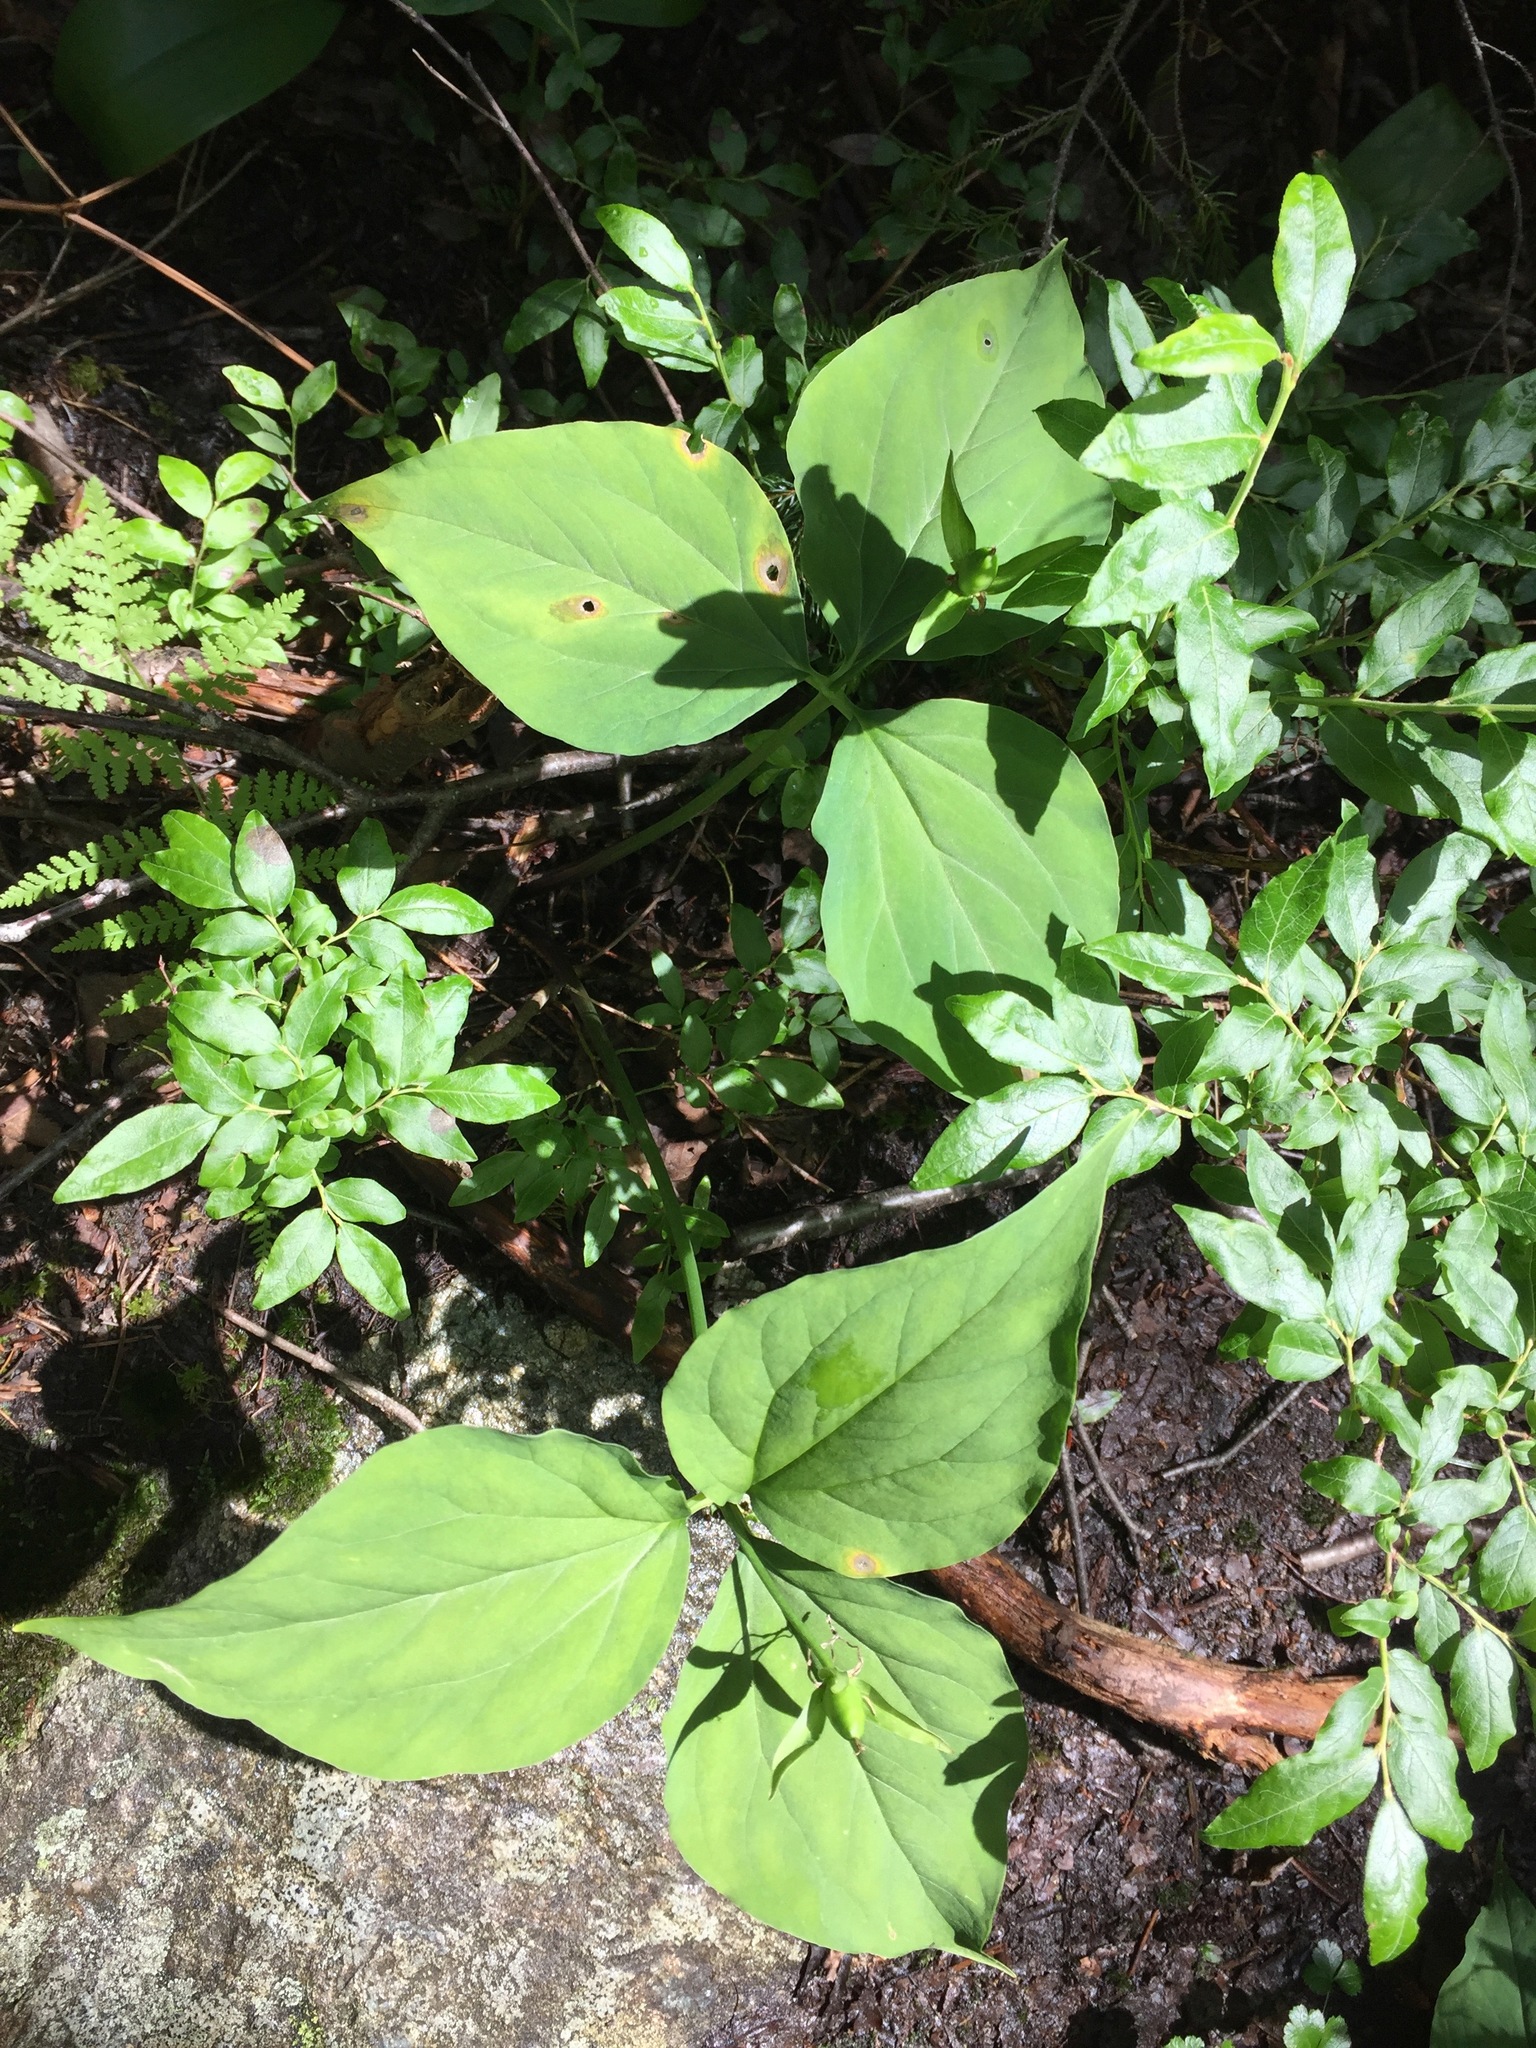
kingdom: Plantae
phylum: Tracheophyta
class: Liliopsida
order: Liliales
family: Melanthiaceae
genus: Trillium
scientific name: Trillium undulatum
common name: Paint trillium
